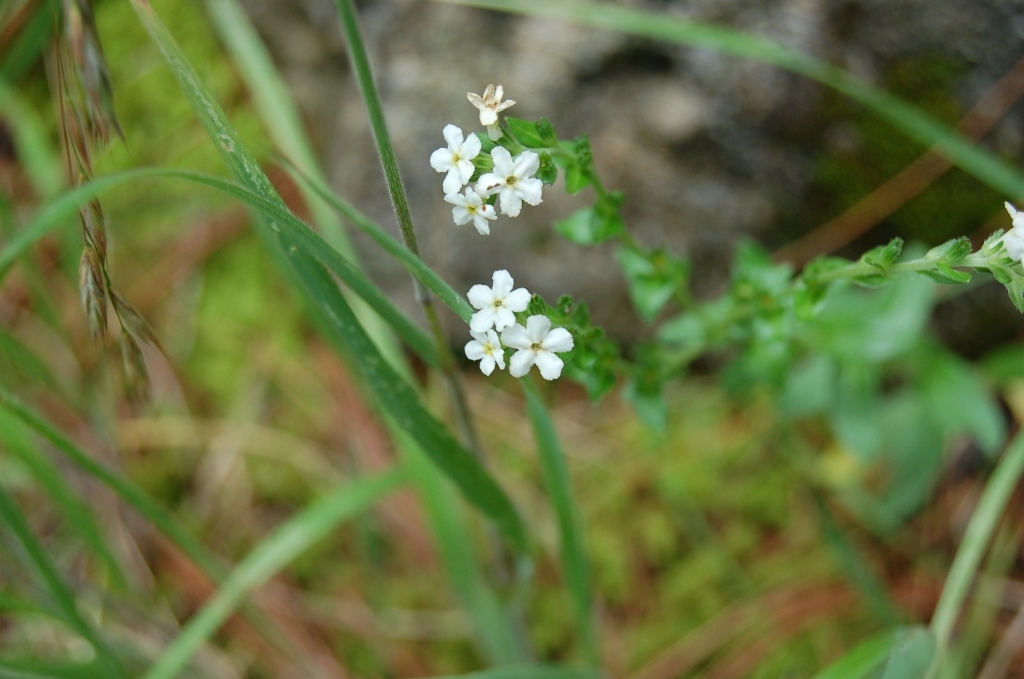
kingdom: Plantae
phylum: Tracheophyta
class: Magnoliopsida
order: Boraginales
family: Boraginaceae
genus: Hackelia
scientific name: Hackelia mexicana
